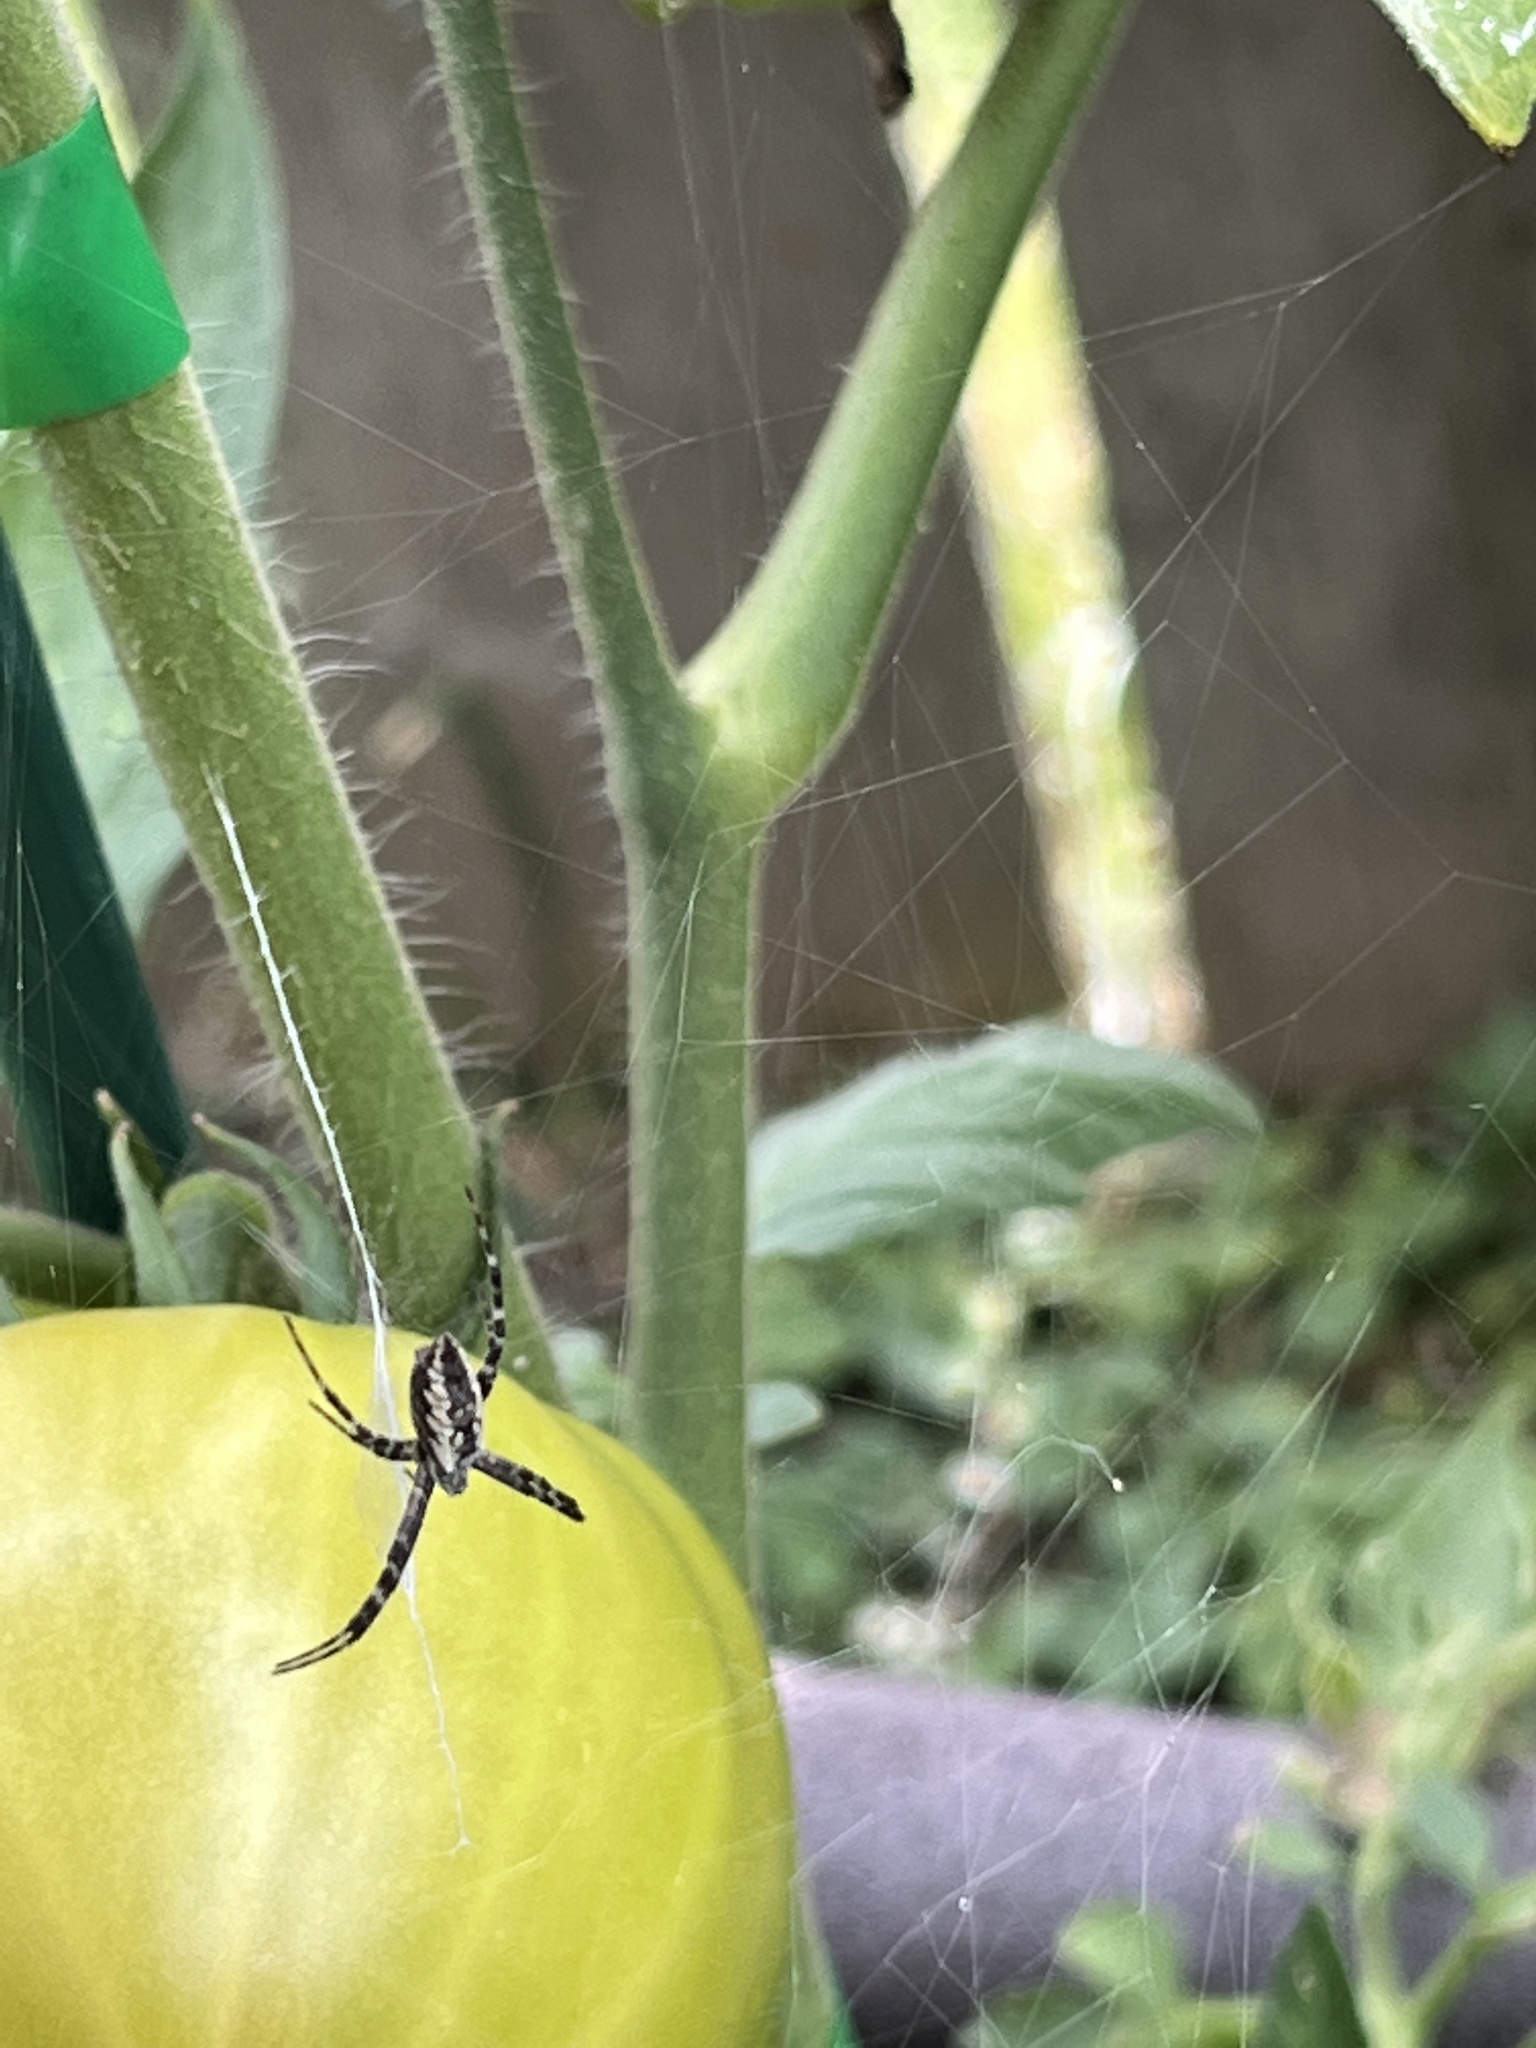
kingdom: Animalia
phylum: Arthropoda
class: Arachnida
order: Araneae
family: Araneidae
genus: Argiope
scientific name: Argiope aurantia
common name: Orb weavers
